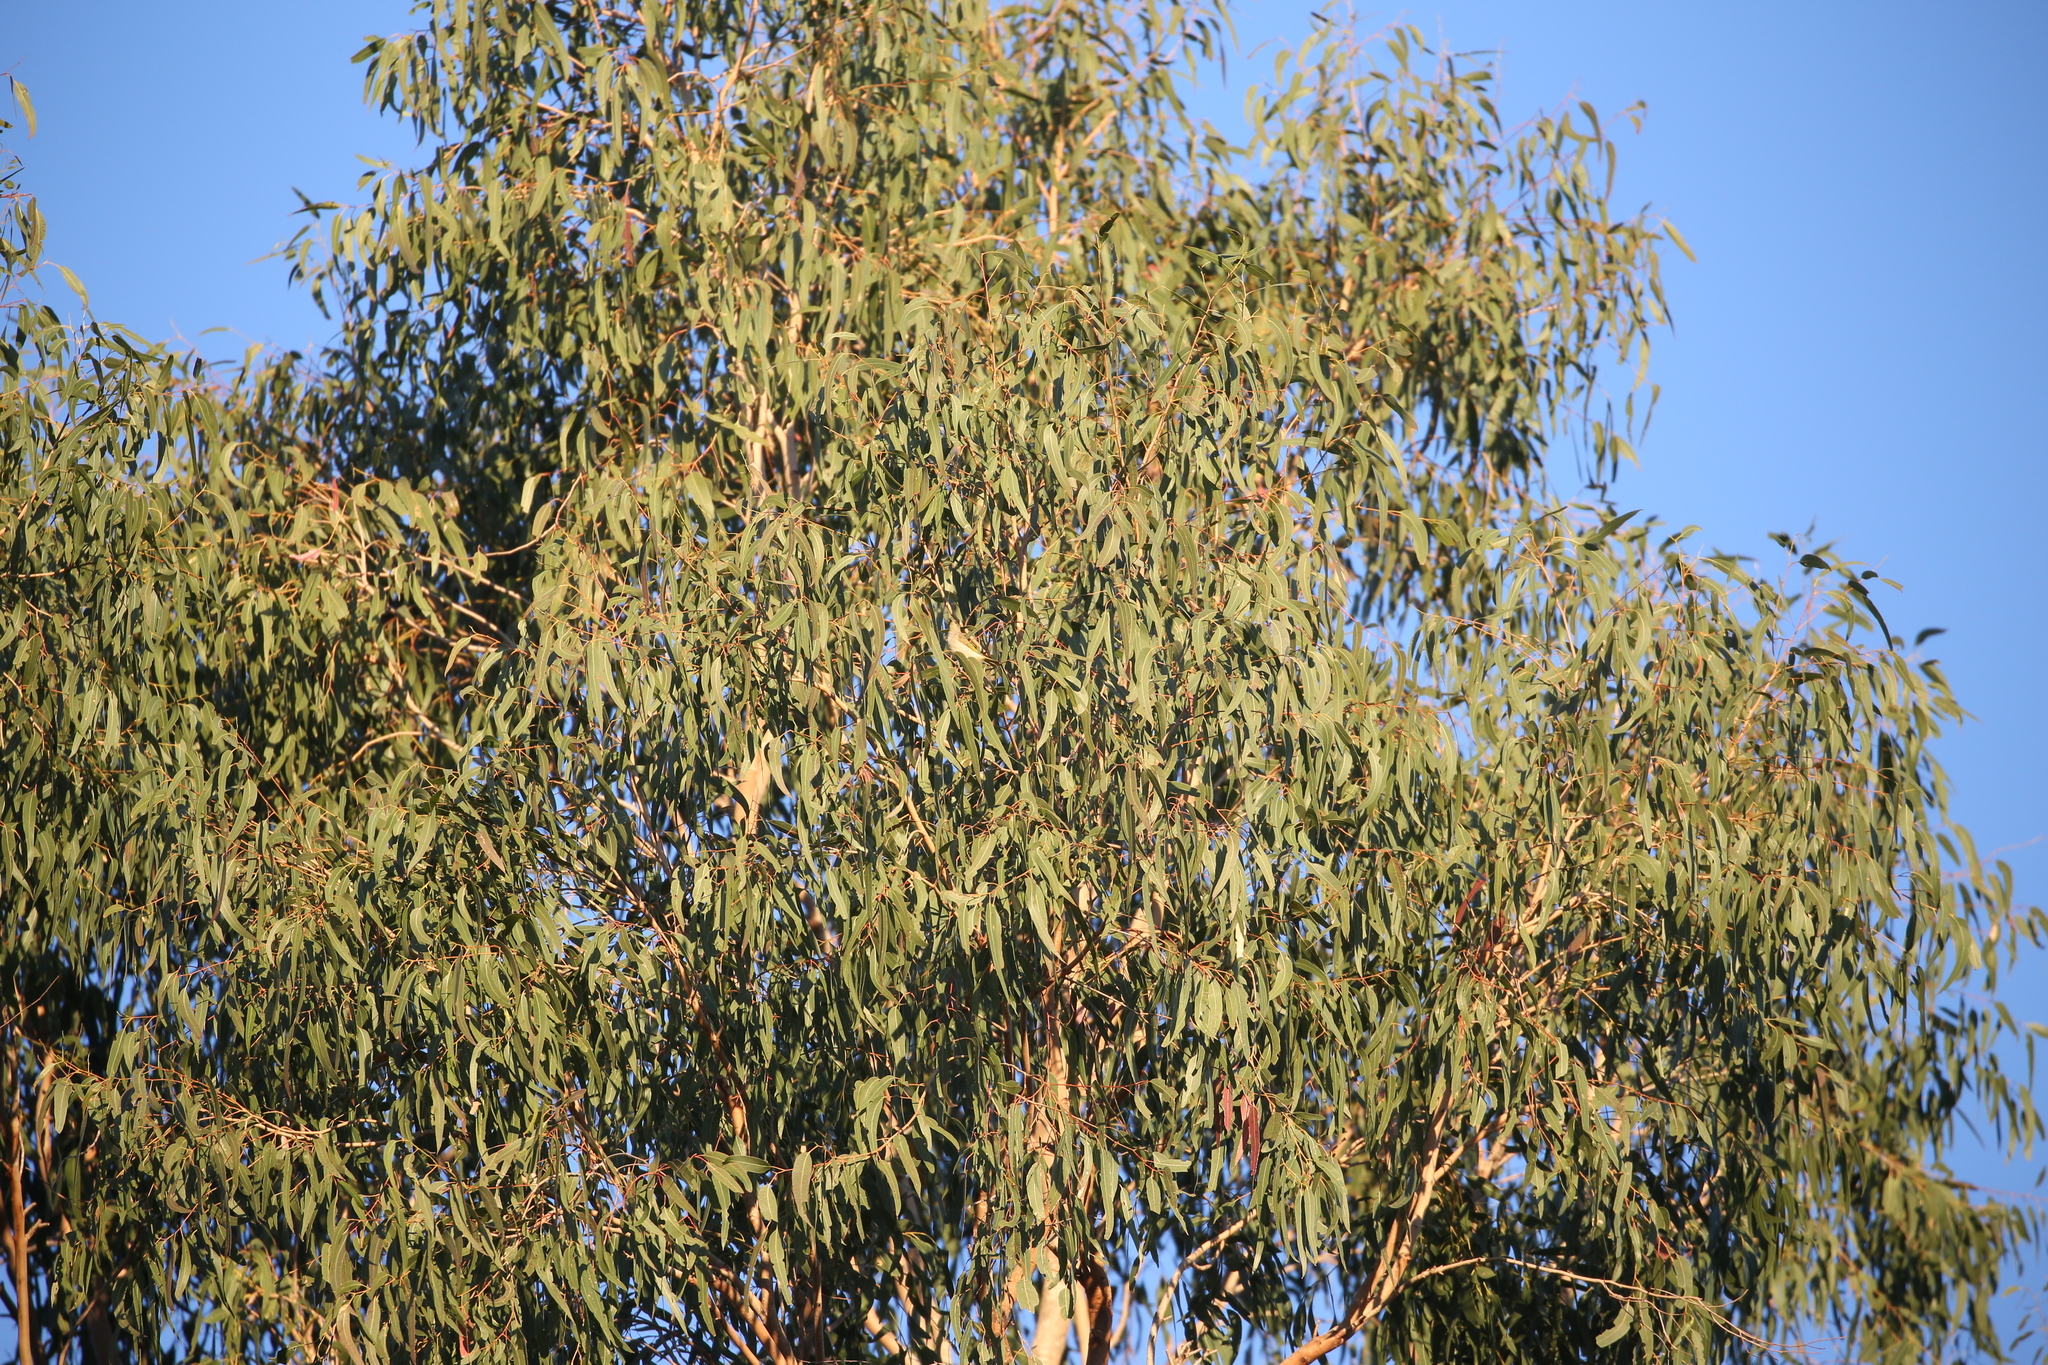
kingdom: Animalia
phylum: Chordata
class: Aves
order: Passeriformes
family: Meliphagidae
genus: Lichmera
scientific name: Lichmera indistincta
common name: Brown honeyeater
